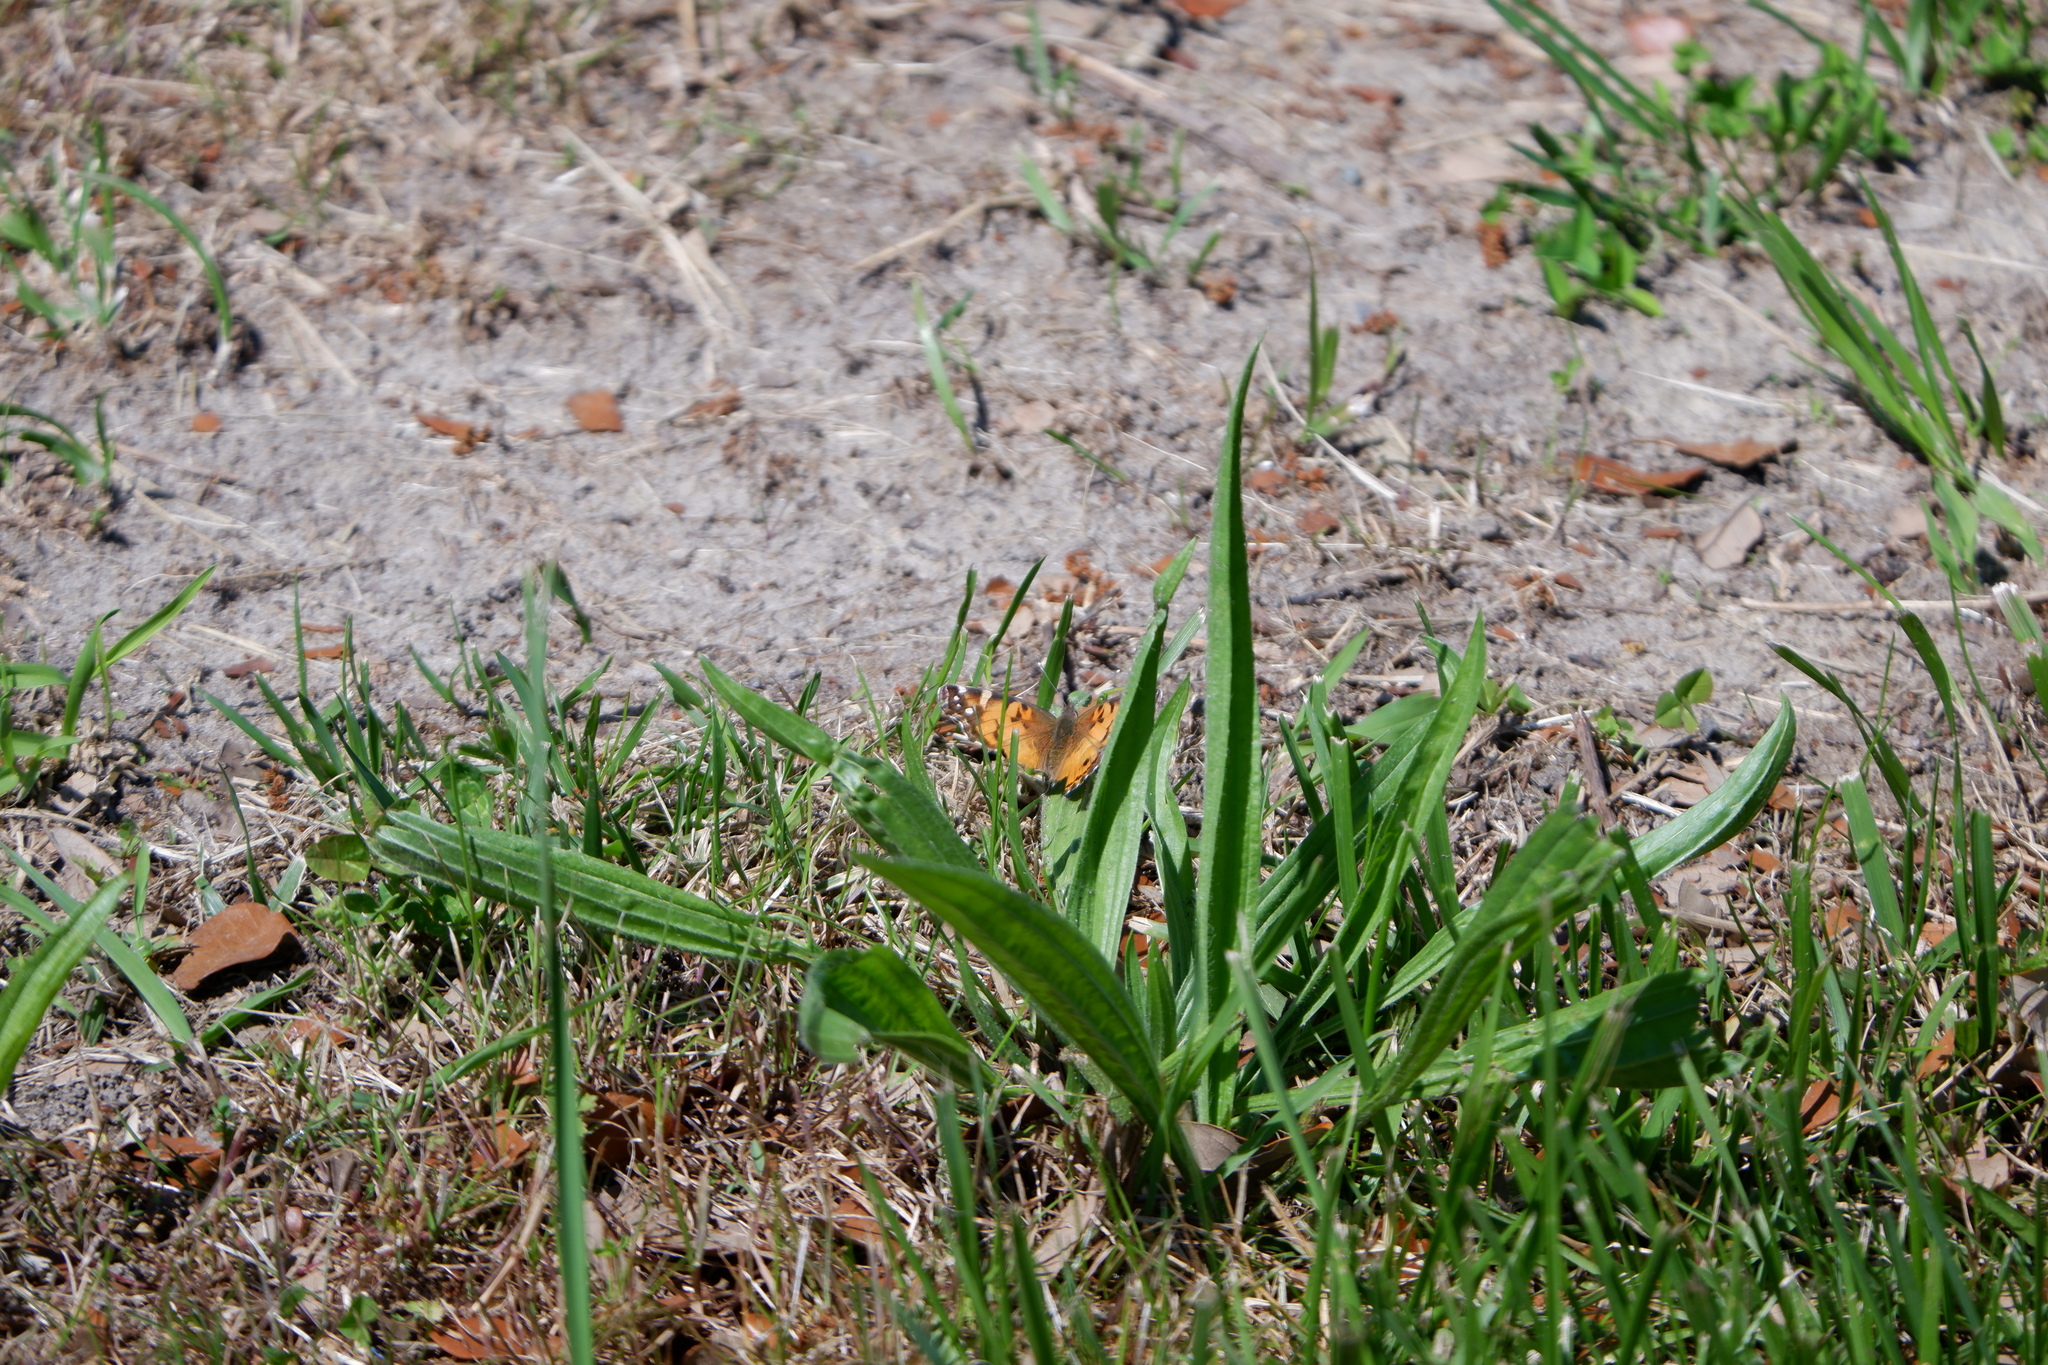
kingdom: Animalia
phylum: Arthropoda
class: Insecta
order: Lepidoptera
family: Nymphalidae
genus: Vanessa
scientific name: Vanessa virginiensis
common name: American lady
